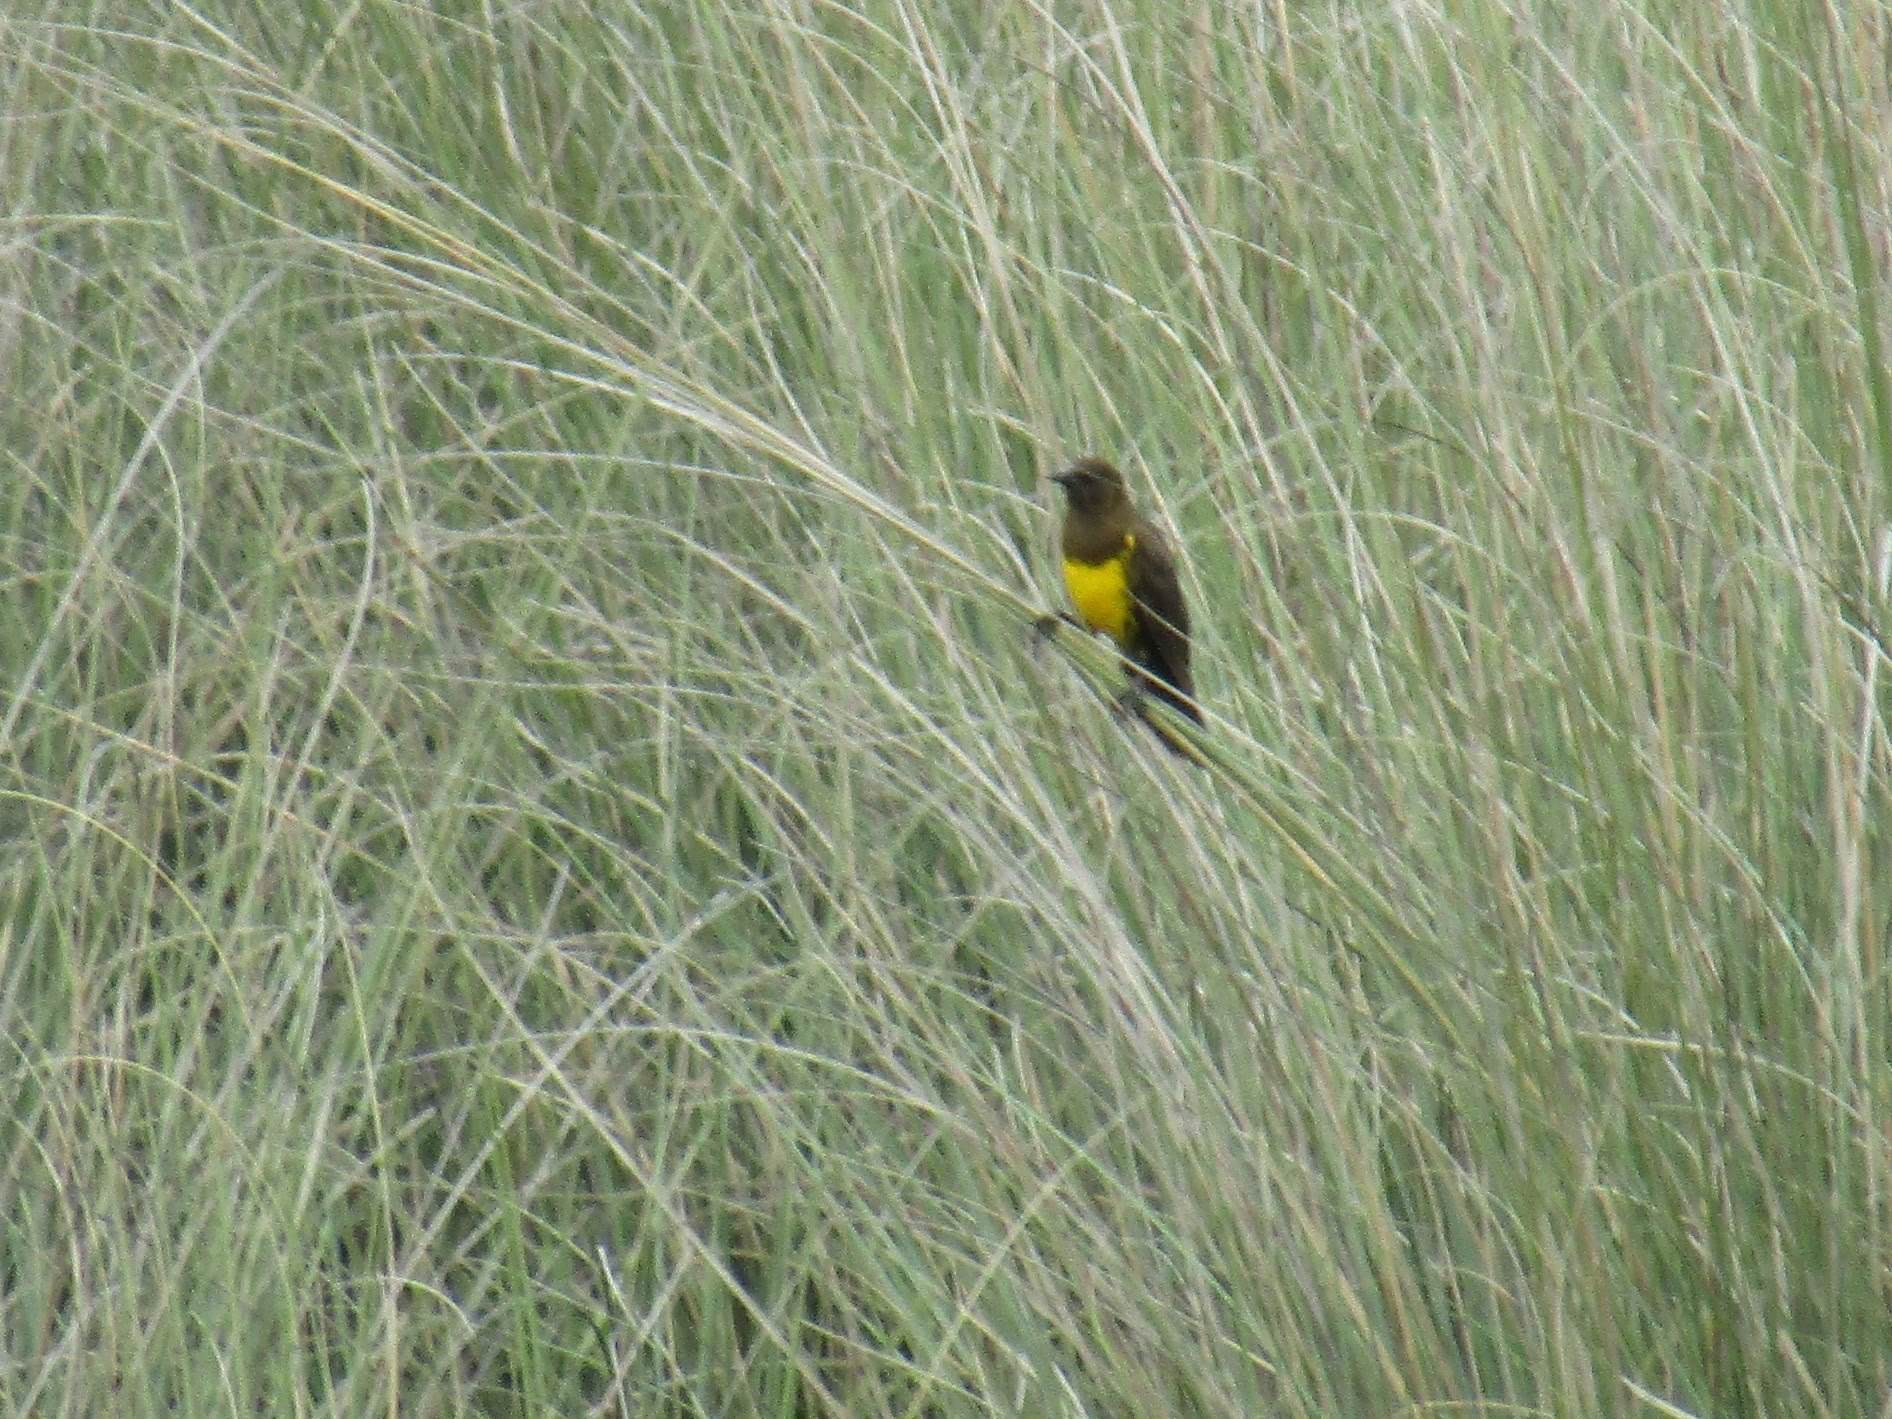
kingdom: Animalia
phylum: Chordata
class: Aves
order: Passeriformes
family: Icteridae
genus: Pseudoleistes
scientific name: Pseudoleistes virescens
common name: Brown-and-yellow marshbird
